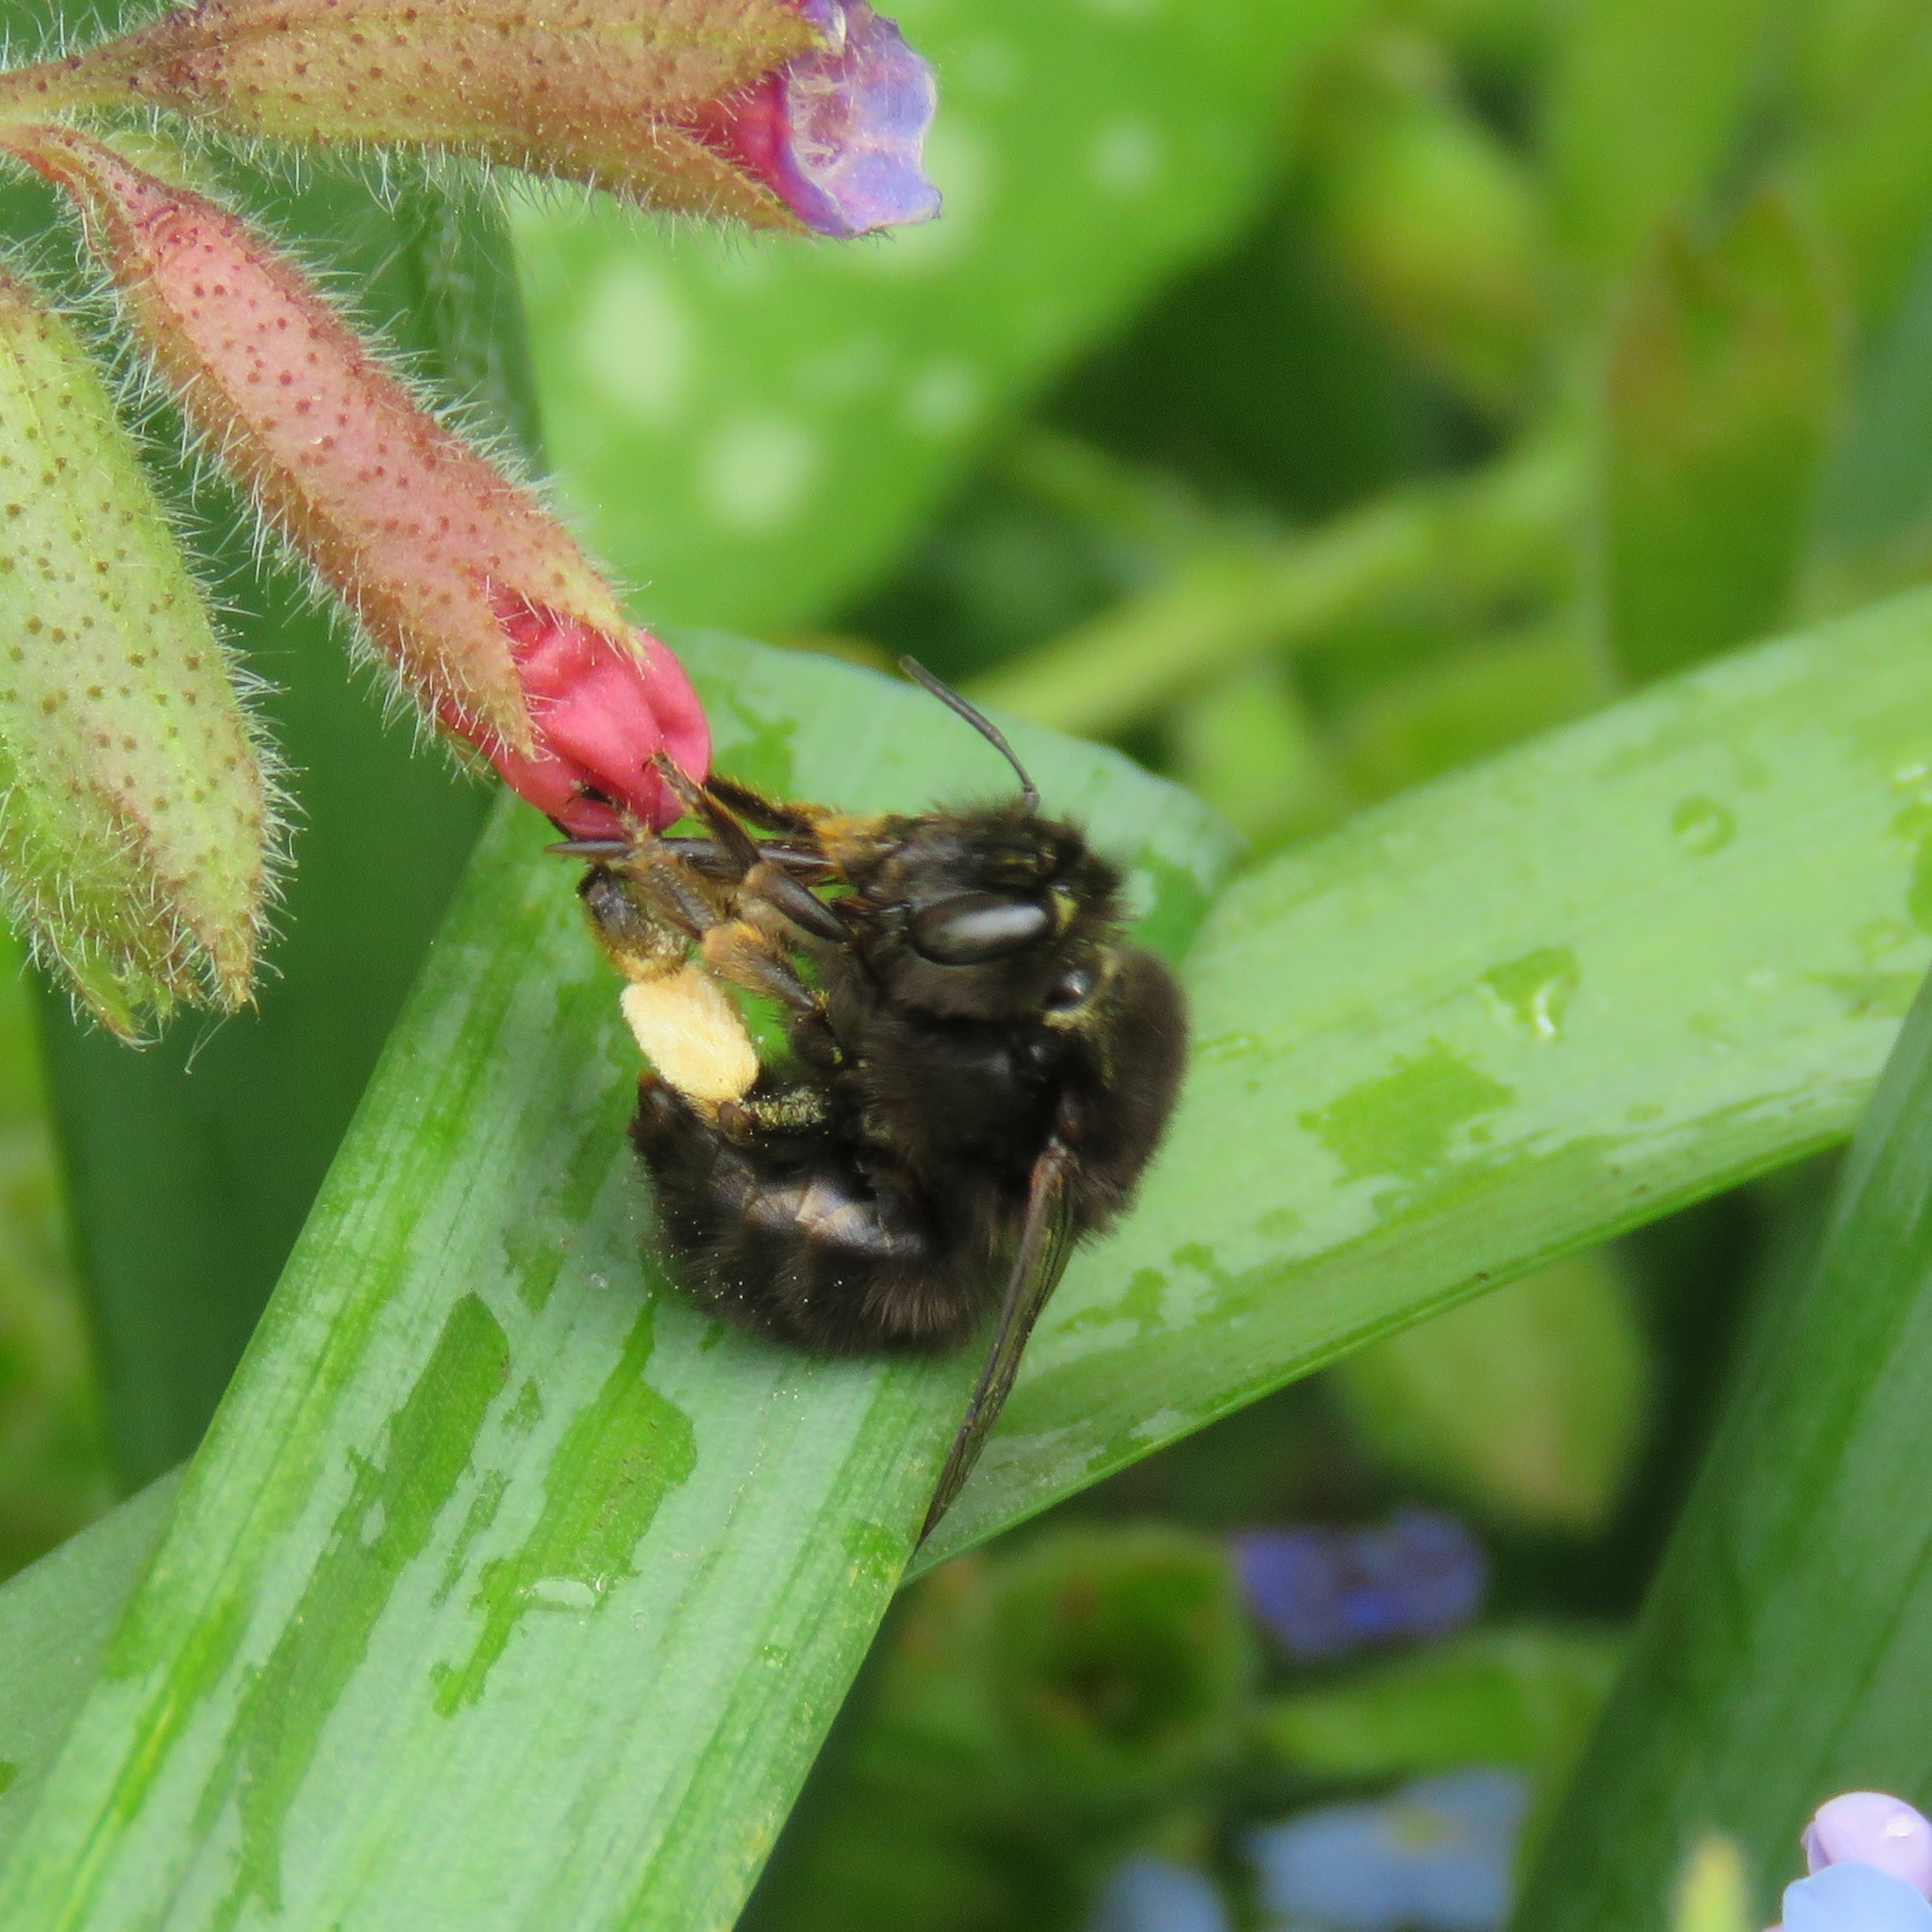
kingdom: Animalia
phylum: Arthropoda
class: Insecta
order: Hymenoptera
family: Apidae
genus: Anthophora
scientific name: Anthophora plumipes
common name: Hairy-footed flower bee
